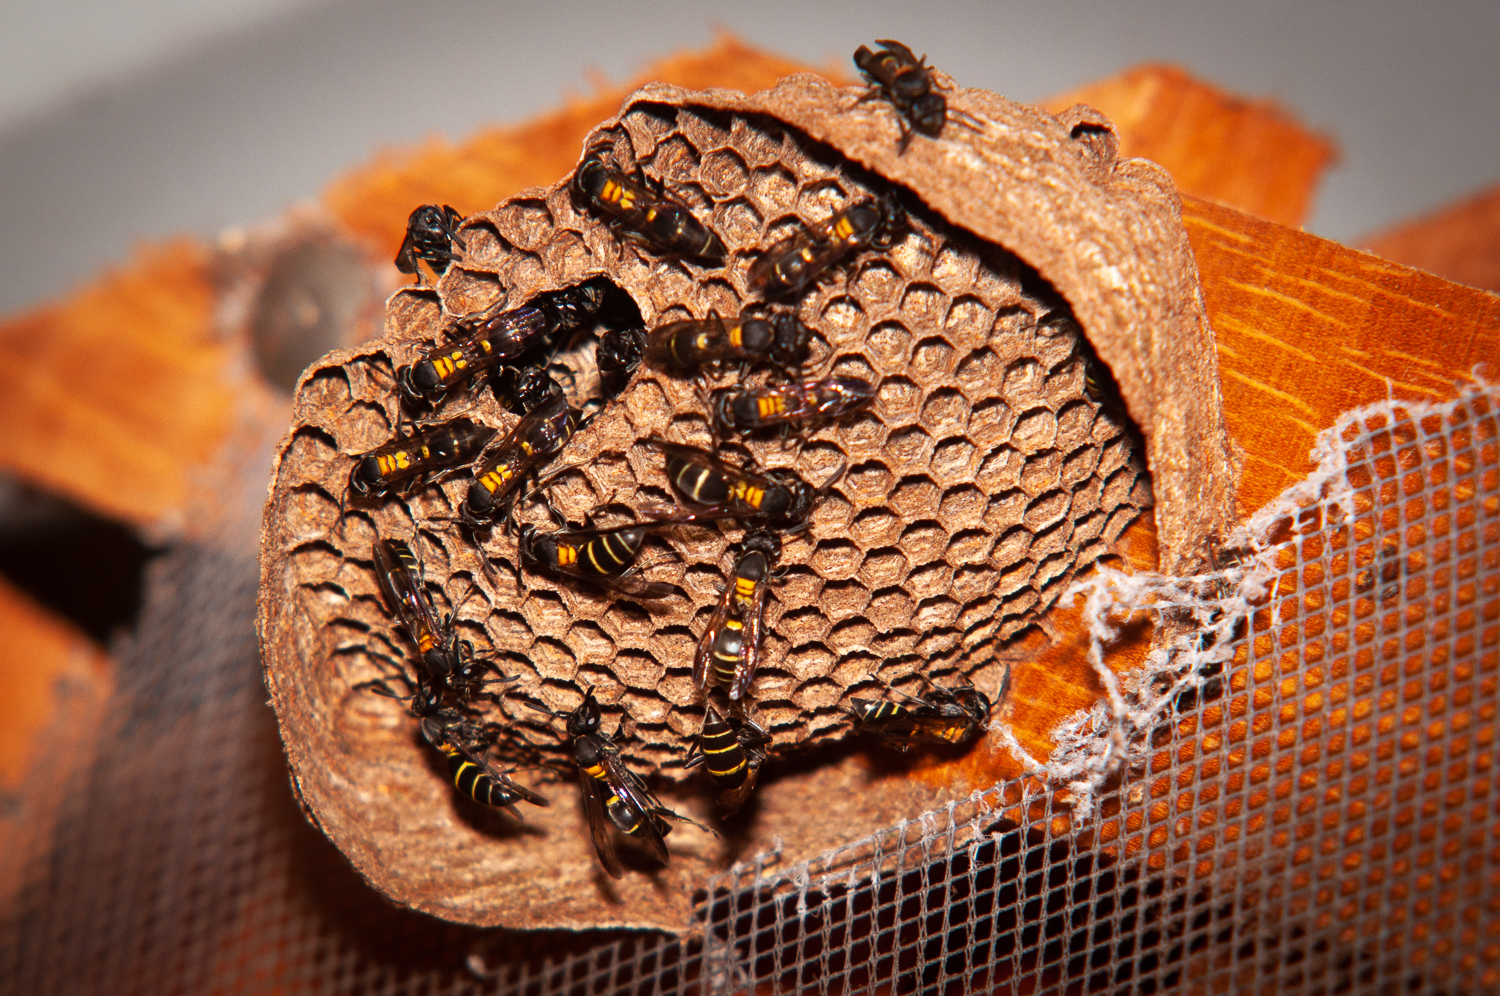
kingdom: Animalia
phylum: Arthropoda
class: Insecta
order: Hymenoptera
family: Eumenidae
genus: Polybia
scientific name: Polybia occidentalis
